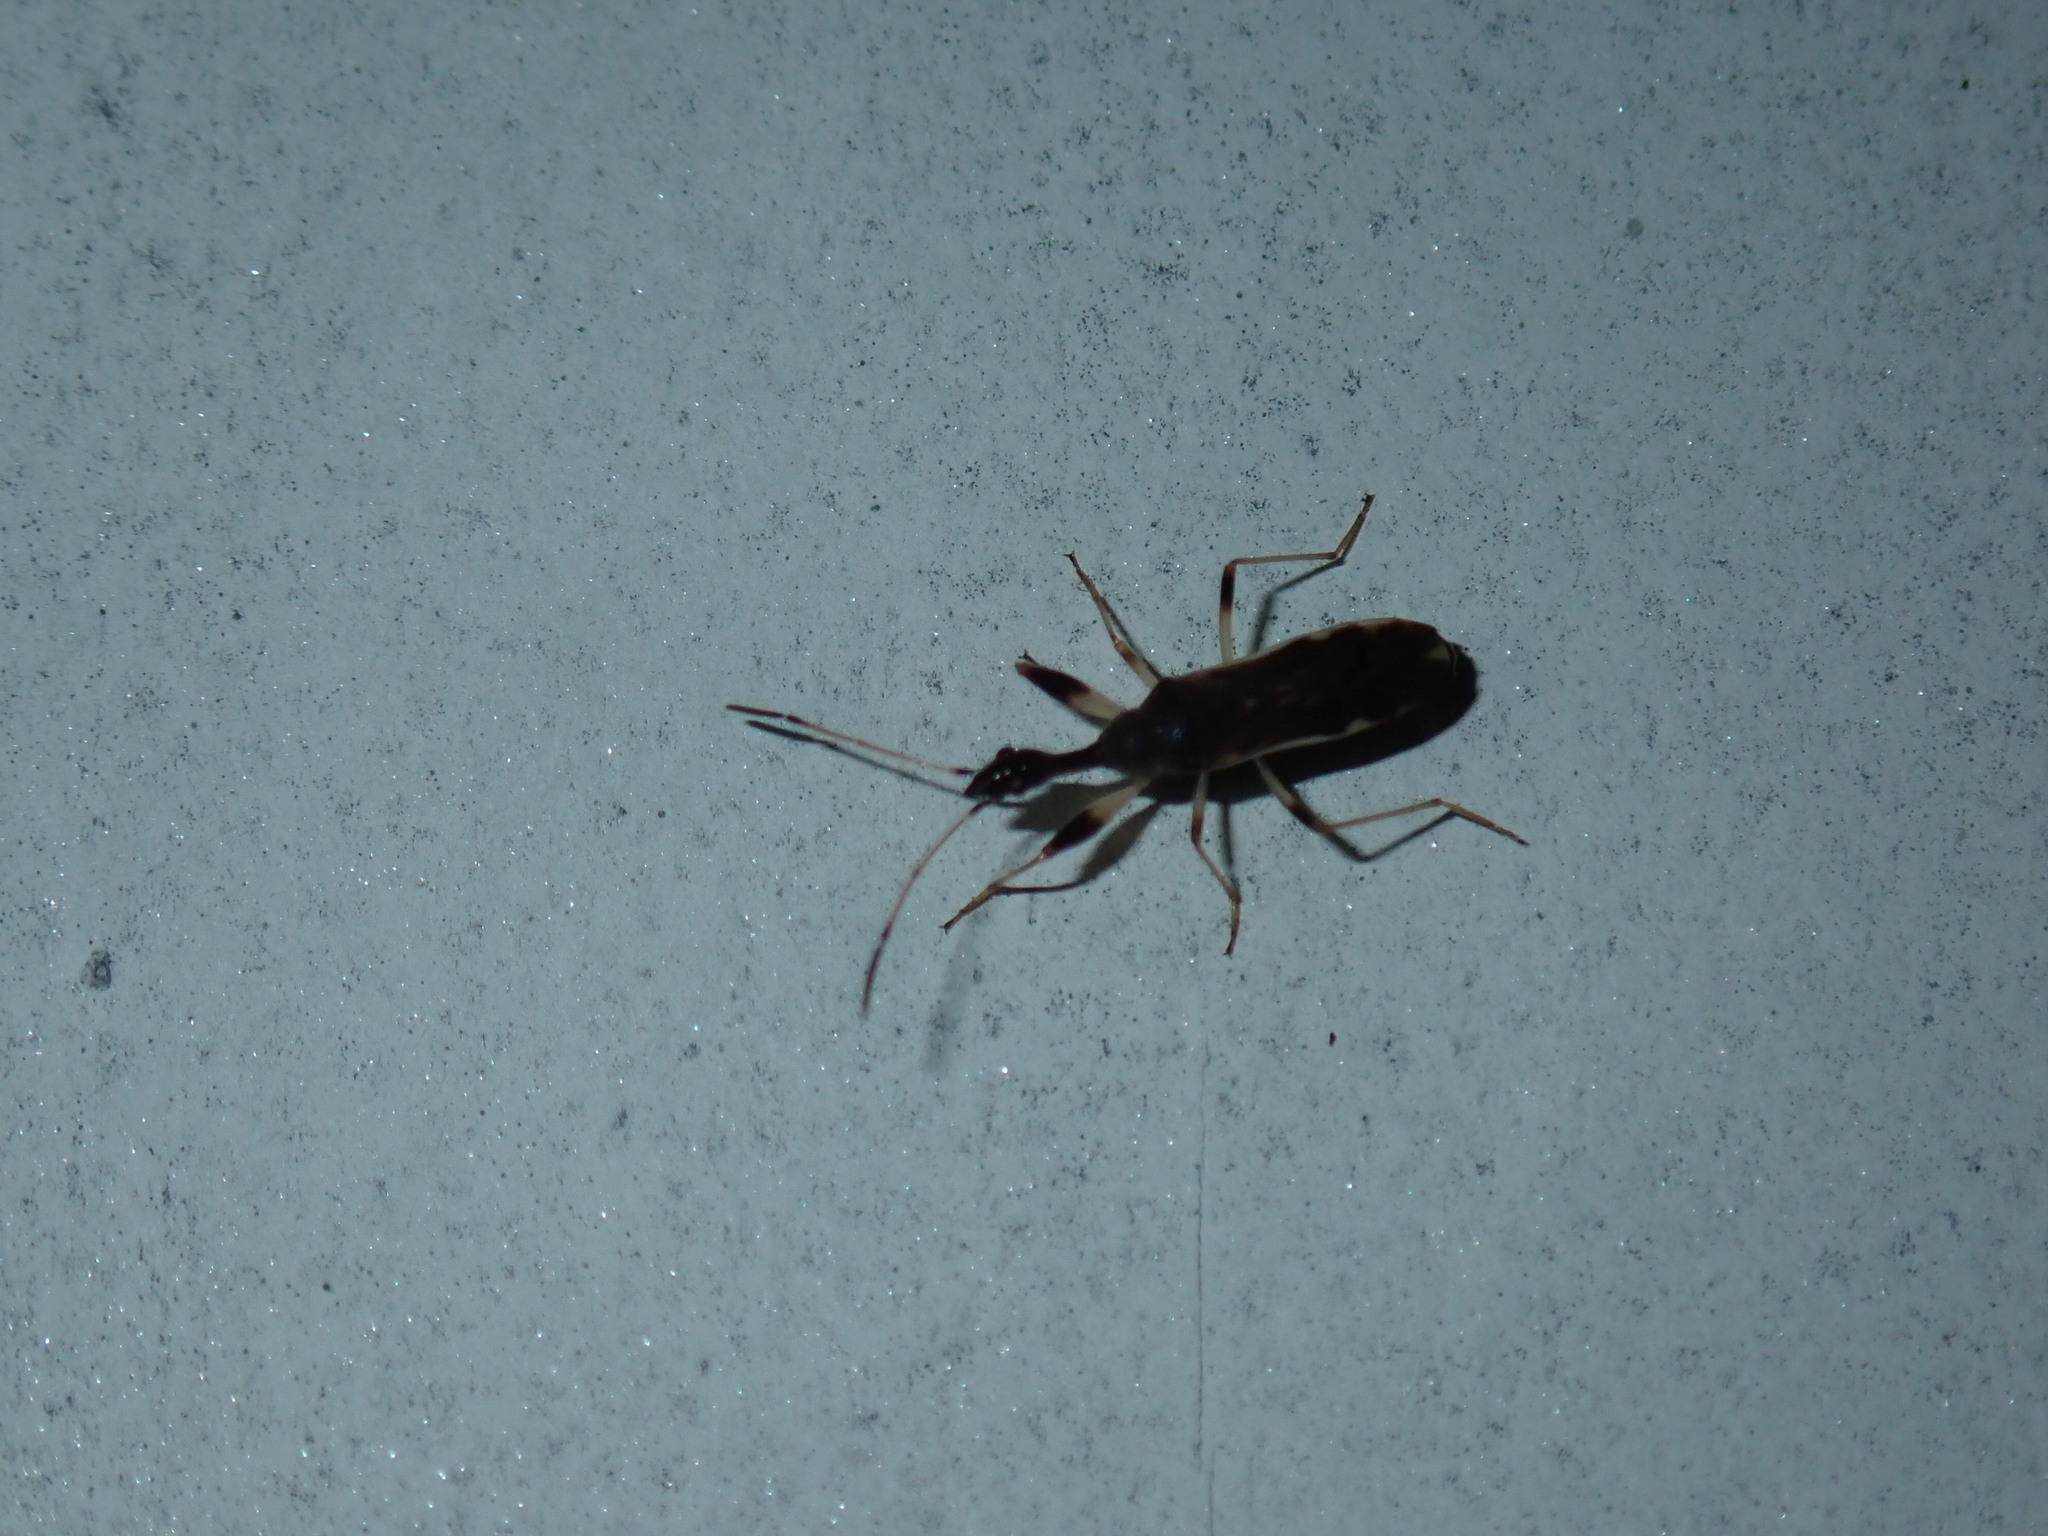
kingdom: Animalia
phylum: Arthropoda
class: Insecta
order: Hemiptera
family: Rhyparochromidae
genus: Myodocha
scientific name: Myodocha serripes
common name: Long-necked seed bug
